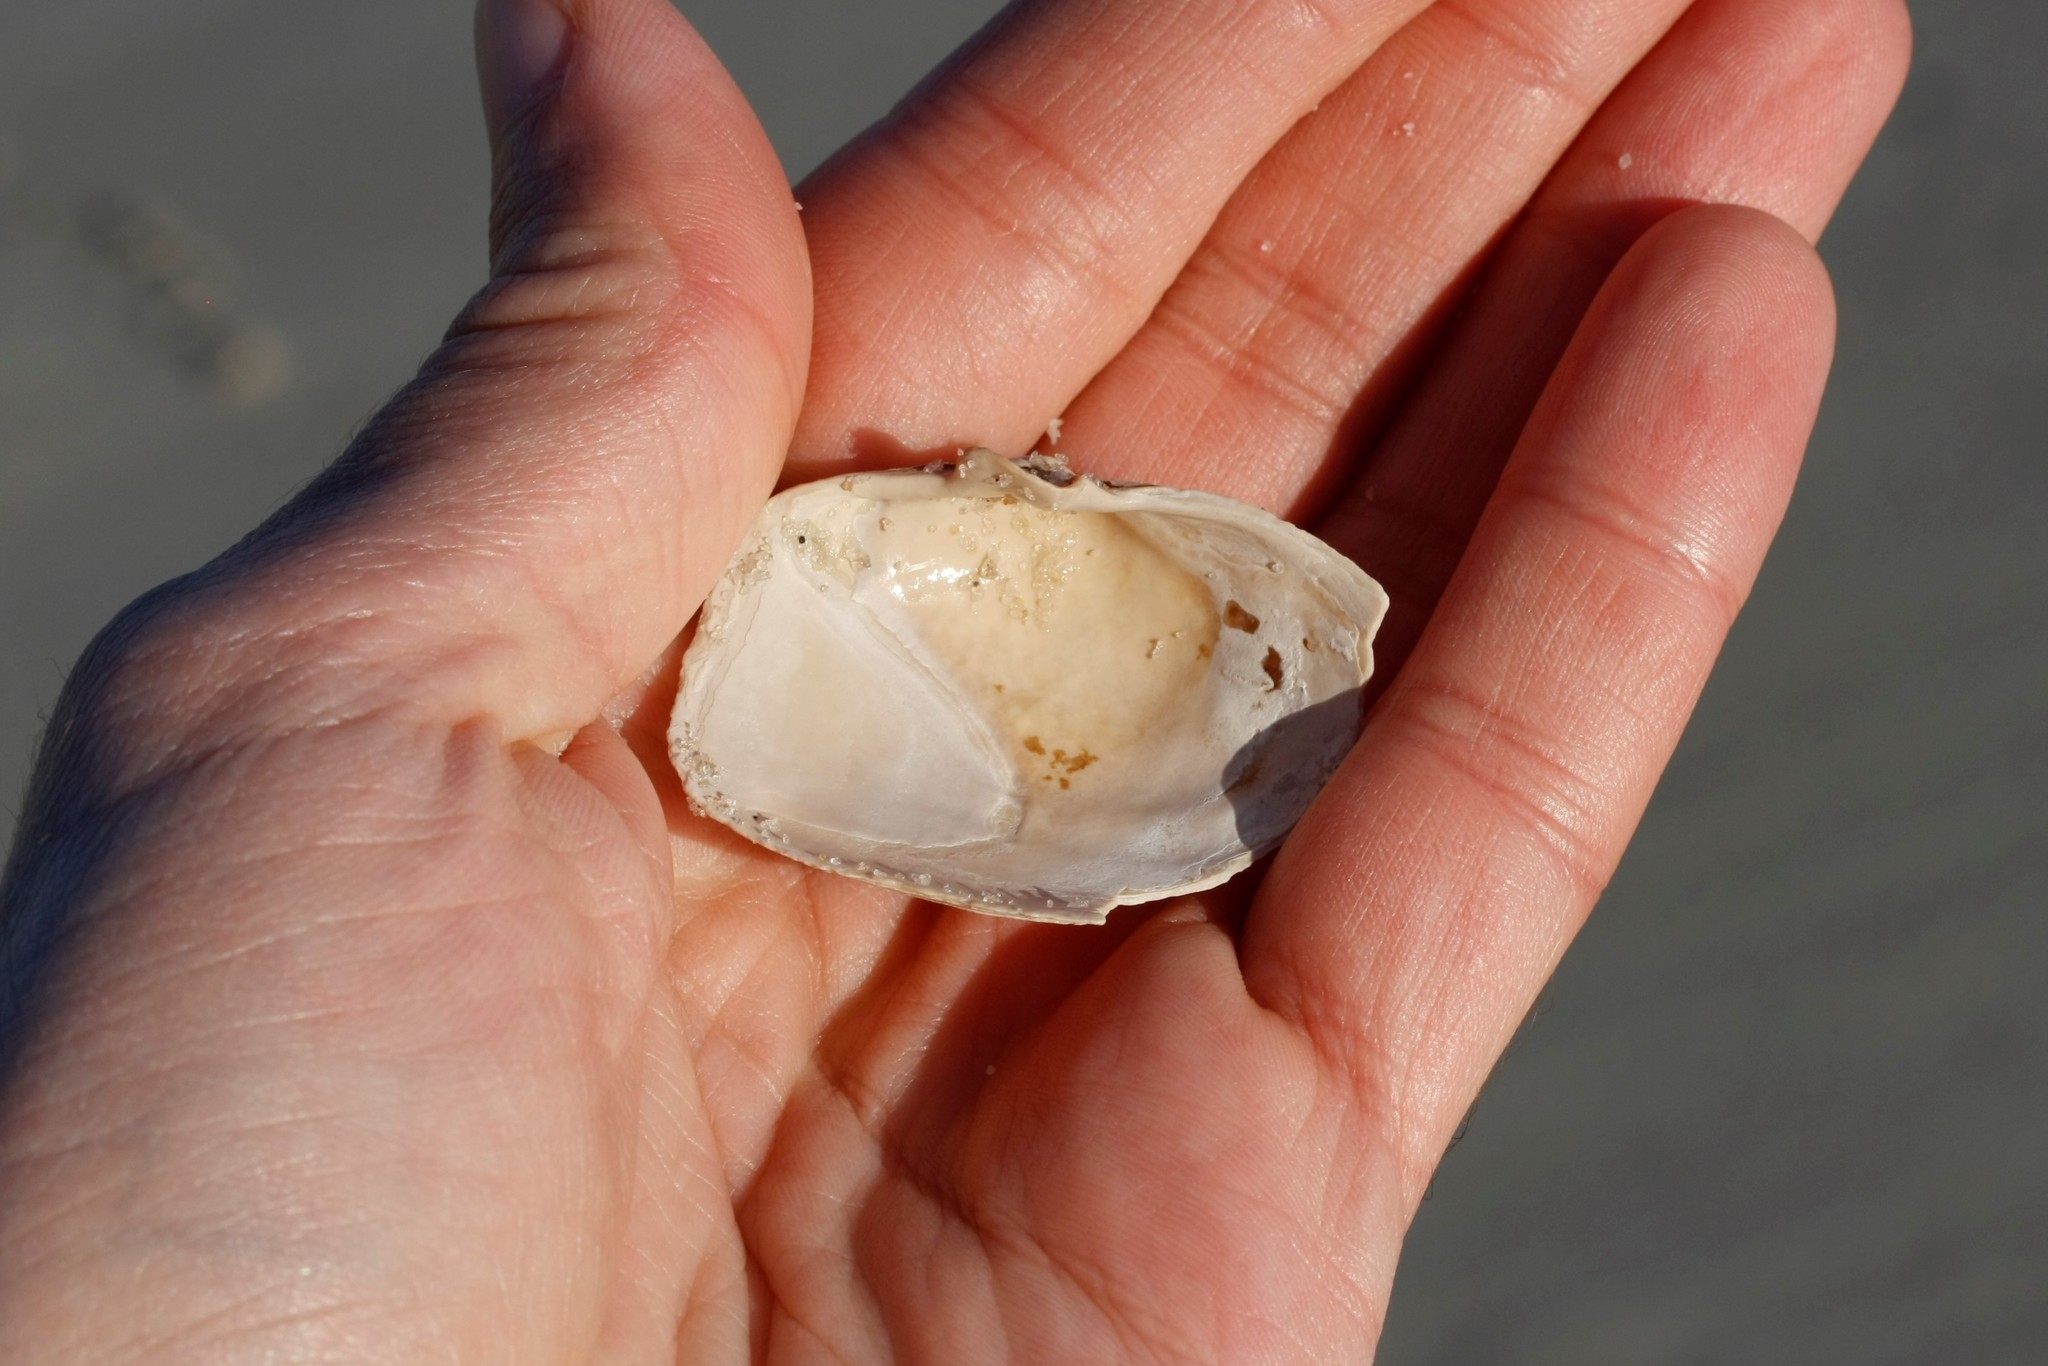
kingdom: Animalia
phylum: Mollusca
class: Bivalvia
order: Myida
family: Myidae
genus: Mya
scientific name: Mya truncata
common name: Blunt gaper
